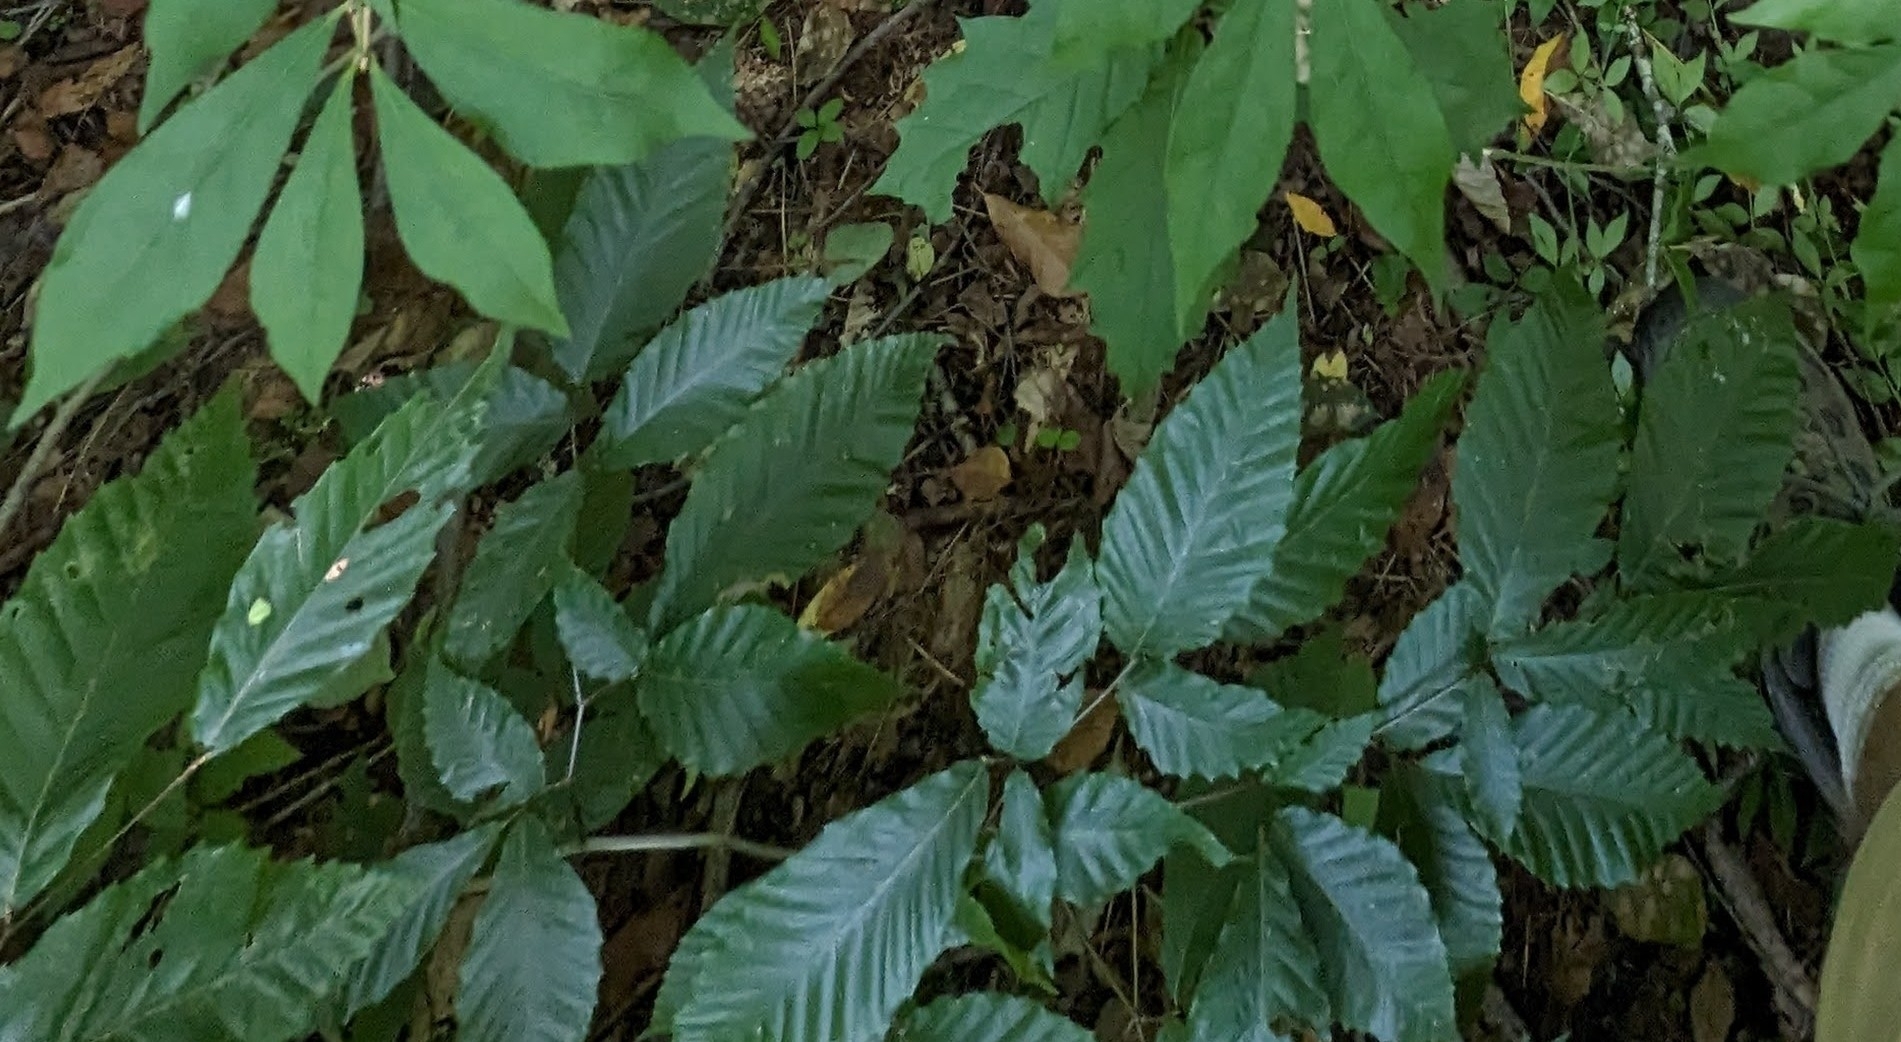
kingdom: Plantae
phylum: Tracheophyta
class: Magnoliopsida
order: Fagales
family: Fagaceae
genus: Fagus
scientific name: Fagus grandifolia
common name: American beech
